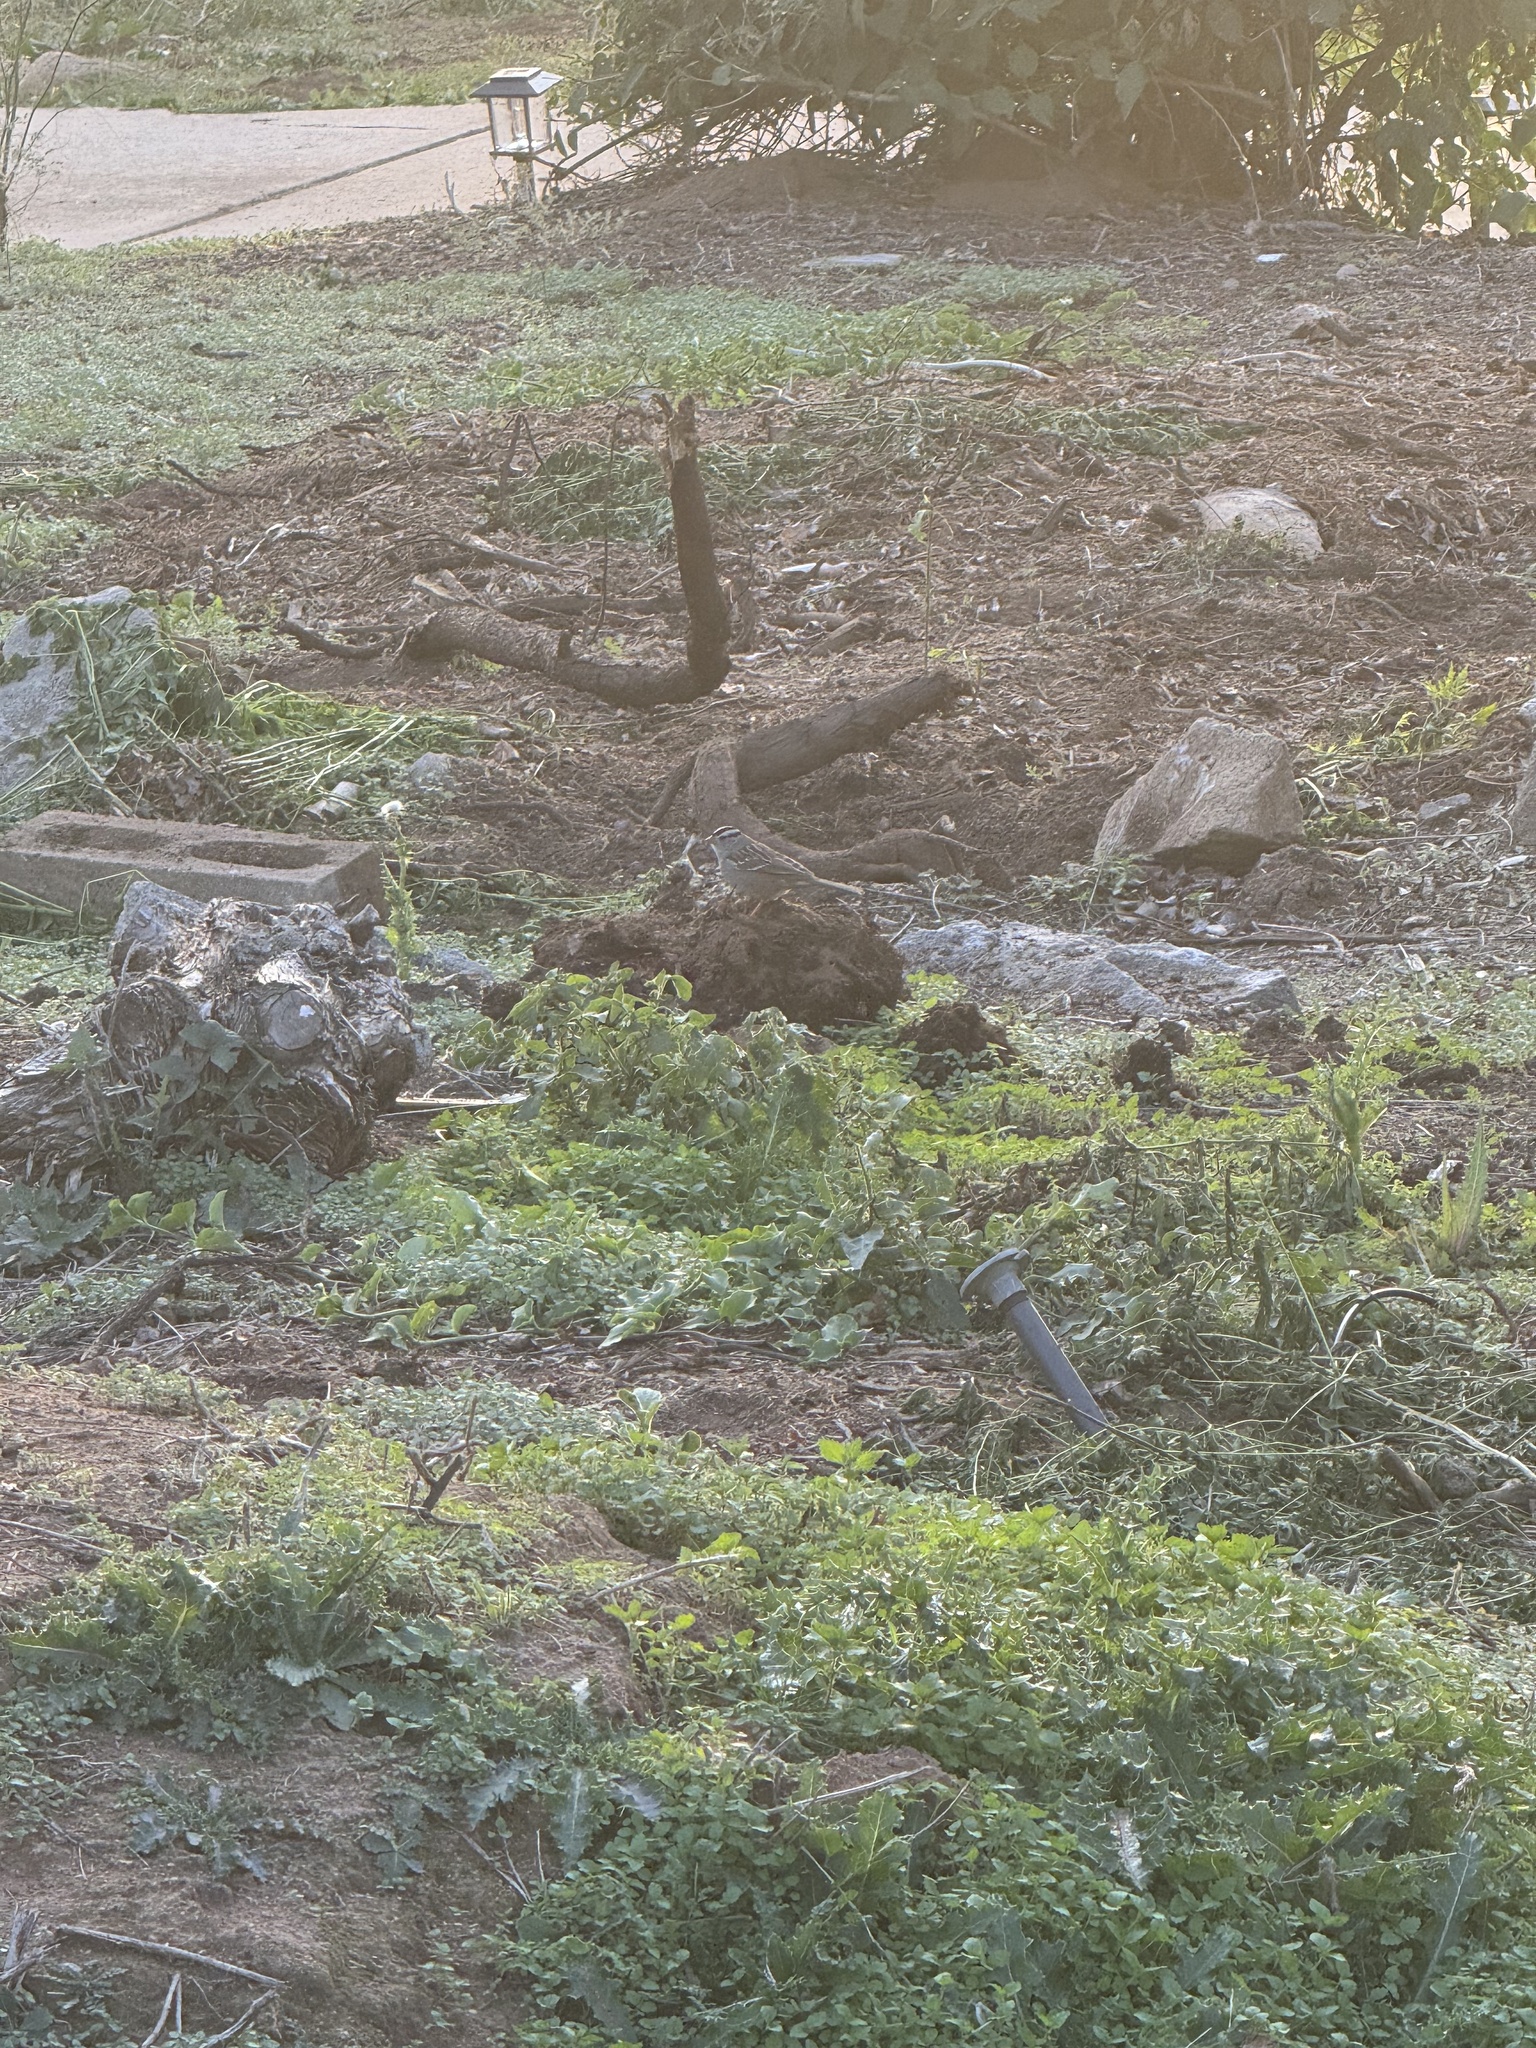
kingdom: Animalia
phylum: Chordata
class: Aves
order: Passeriformes
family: Passerellidae
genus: Zonotrichia
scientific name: Zonotrichia leucophrys
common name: White-crowned sparrow
